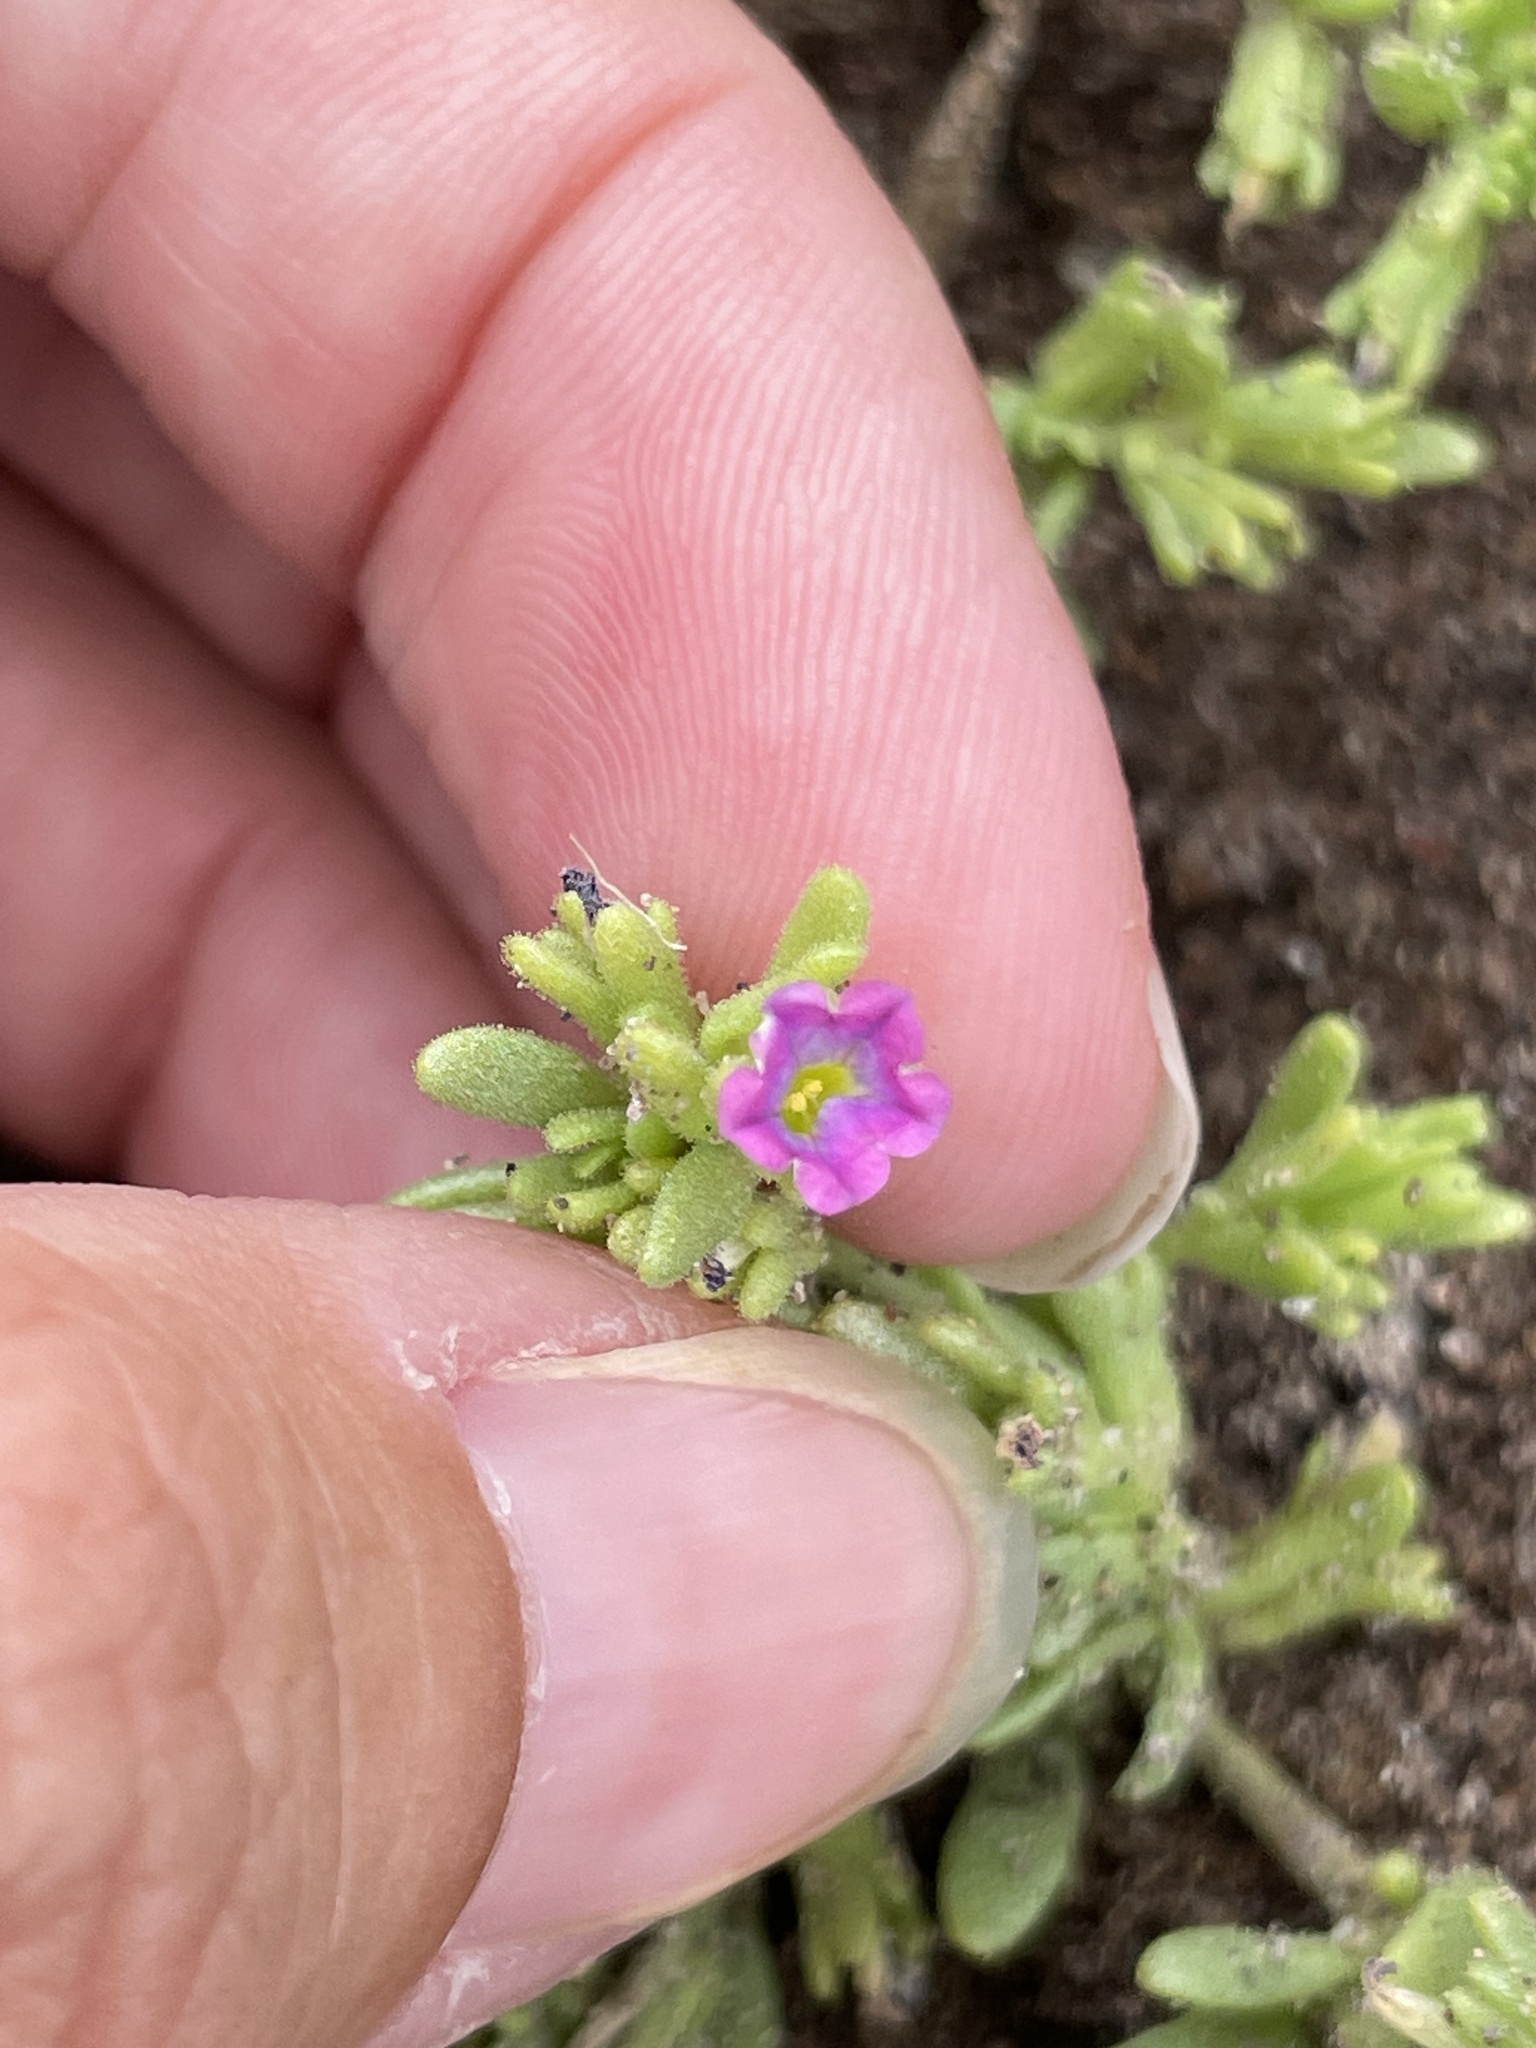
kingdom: Plantae
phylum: Tracheophyta
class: Magnoliopsida
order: Solanales
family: Solanaceae
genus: Calibrachoa
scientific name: Calibrachoa parviflora
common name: Seaside petunia
